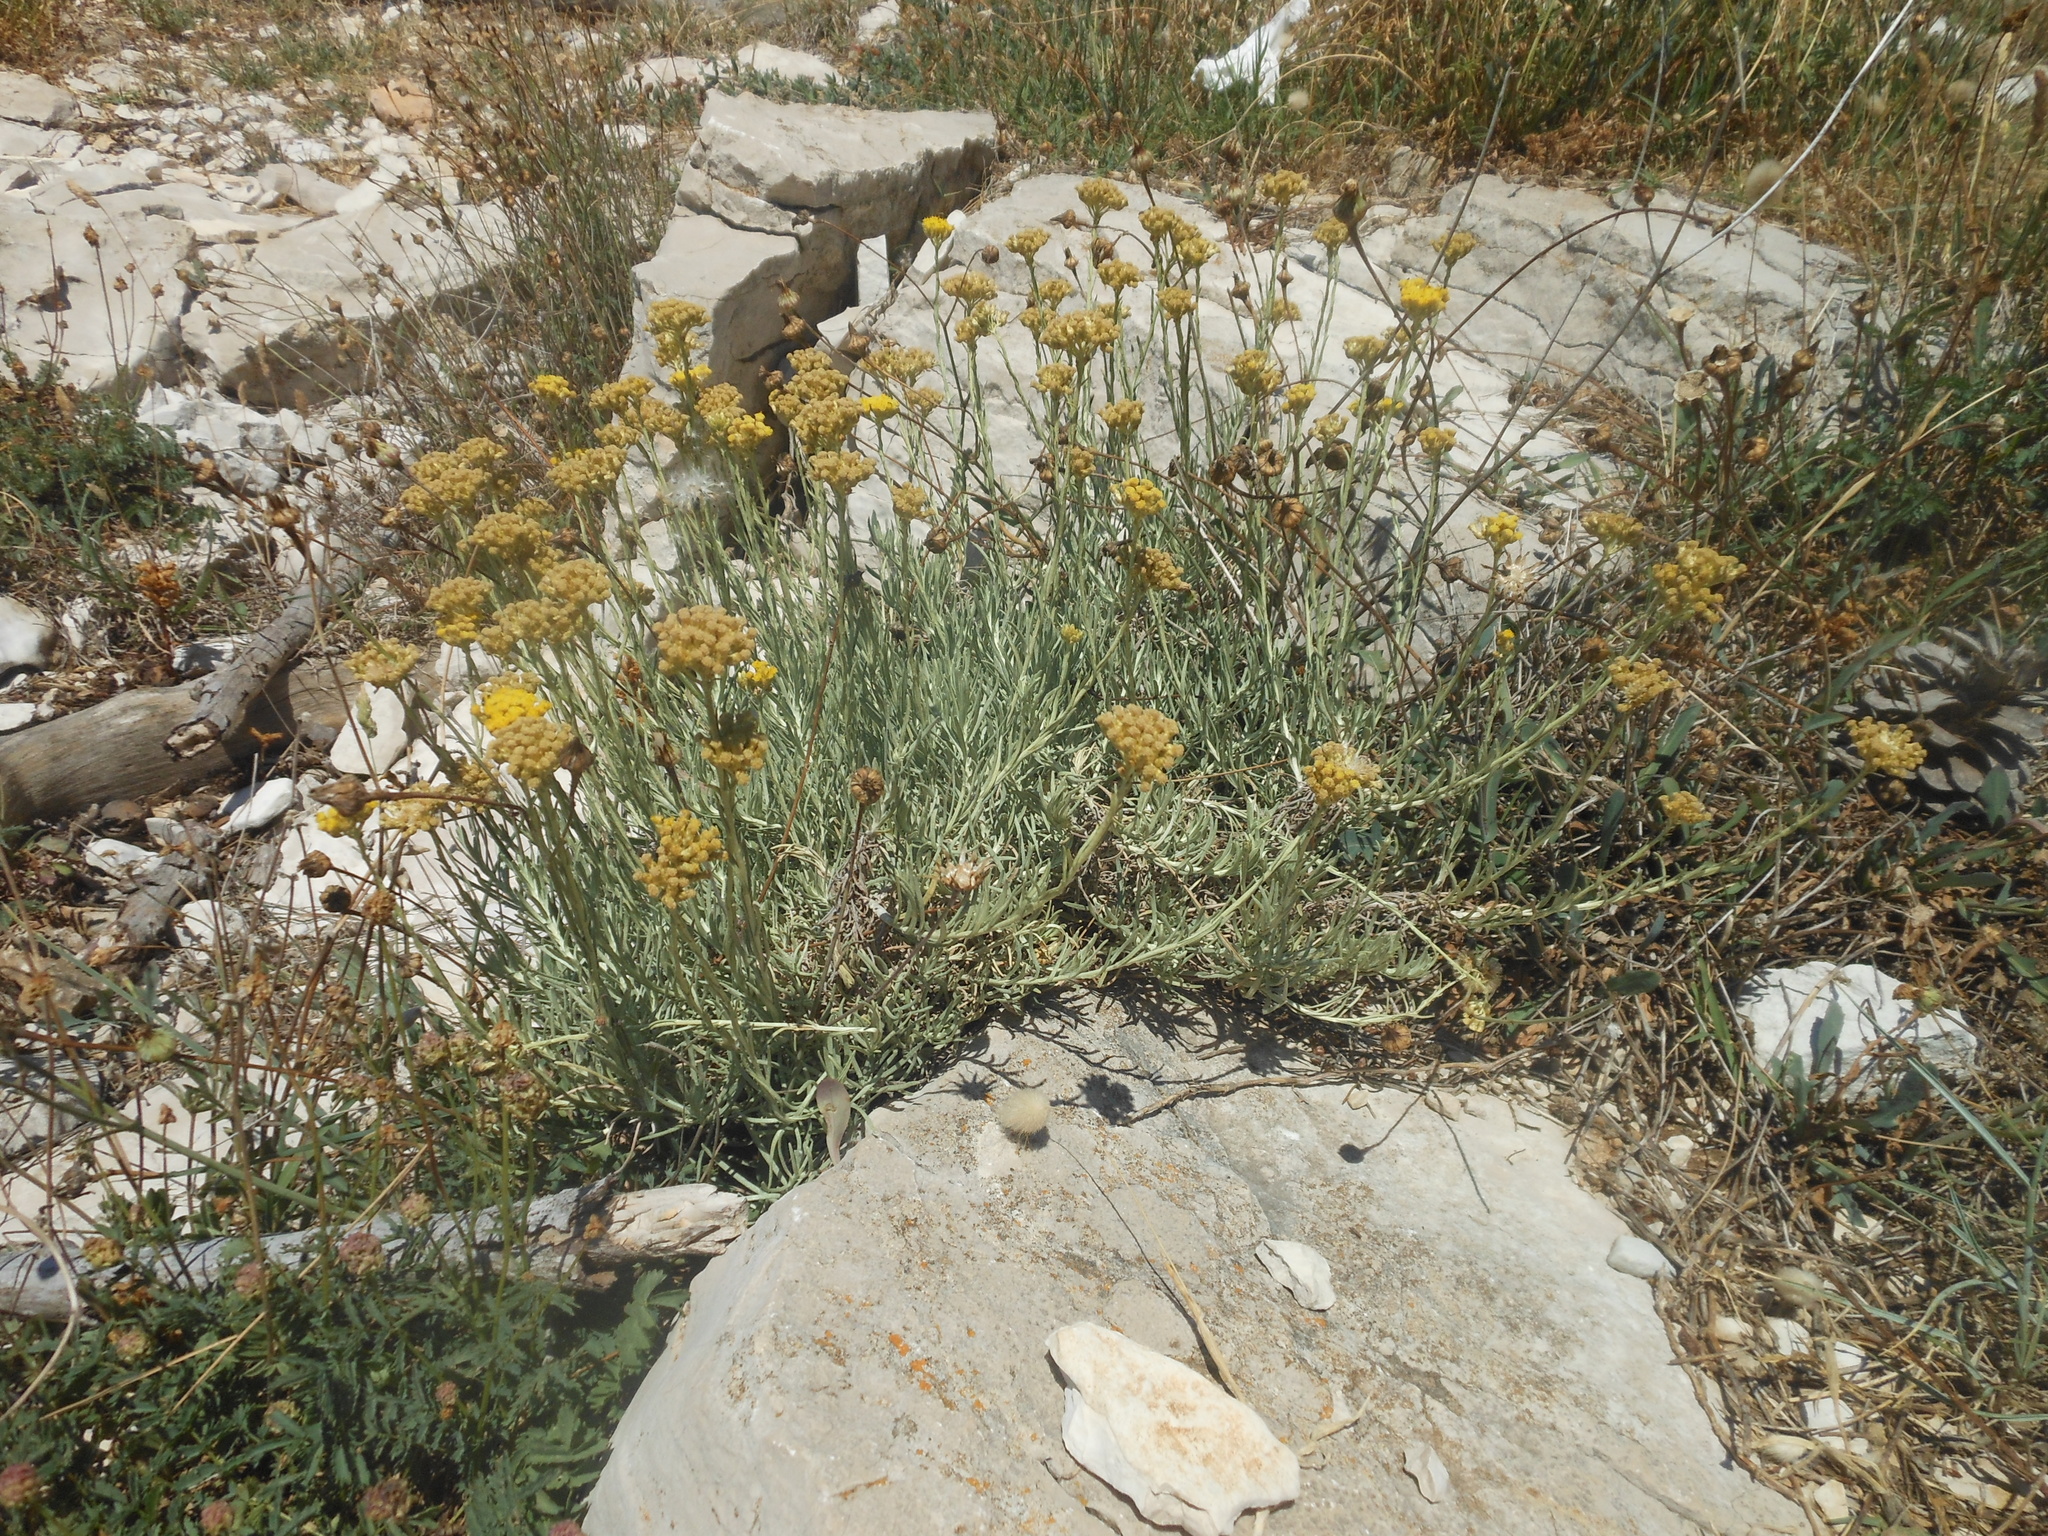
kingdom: Plantae
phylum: Tracheophyta
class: Magnoliopsida
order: Asterales
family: Asteraceae
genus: Helichrysum
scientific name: Helichrysum italicum
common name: Curryplant
